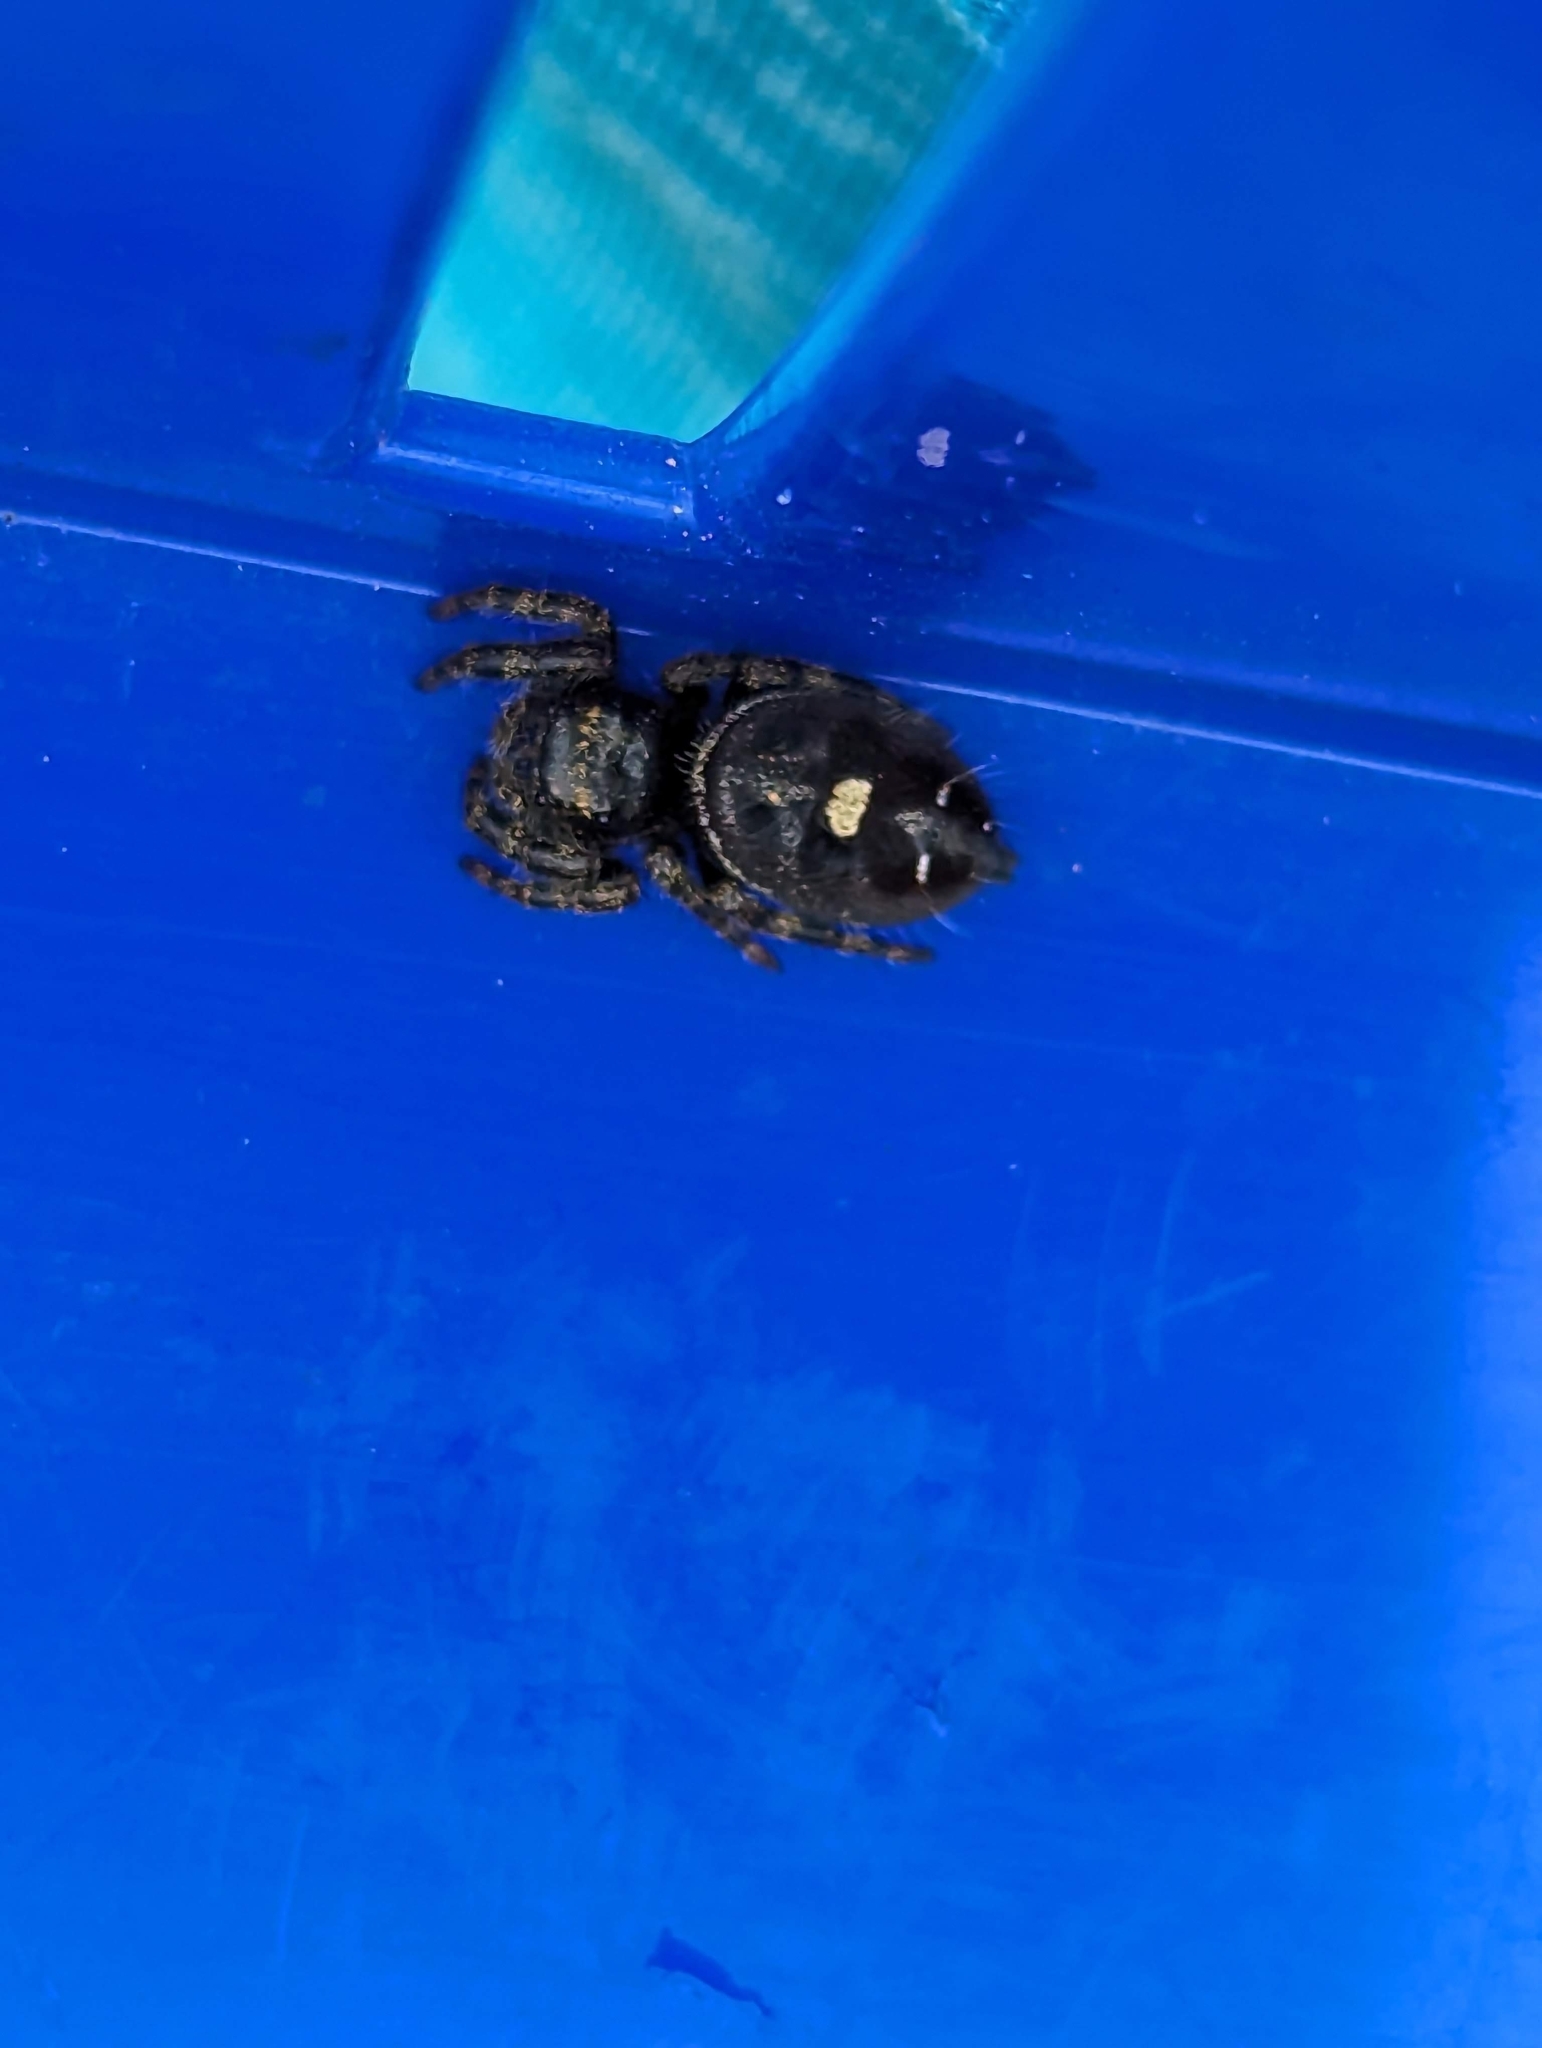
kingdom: Animalia
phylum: Arthropoda
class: Arachnida
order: Araneae
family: Salticidae
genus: Phidippus
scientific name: Phidippus audax
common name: Bold jumper
